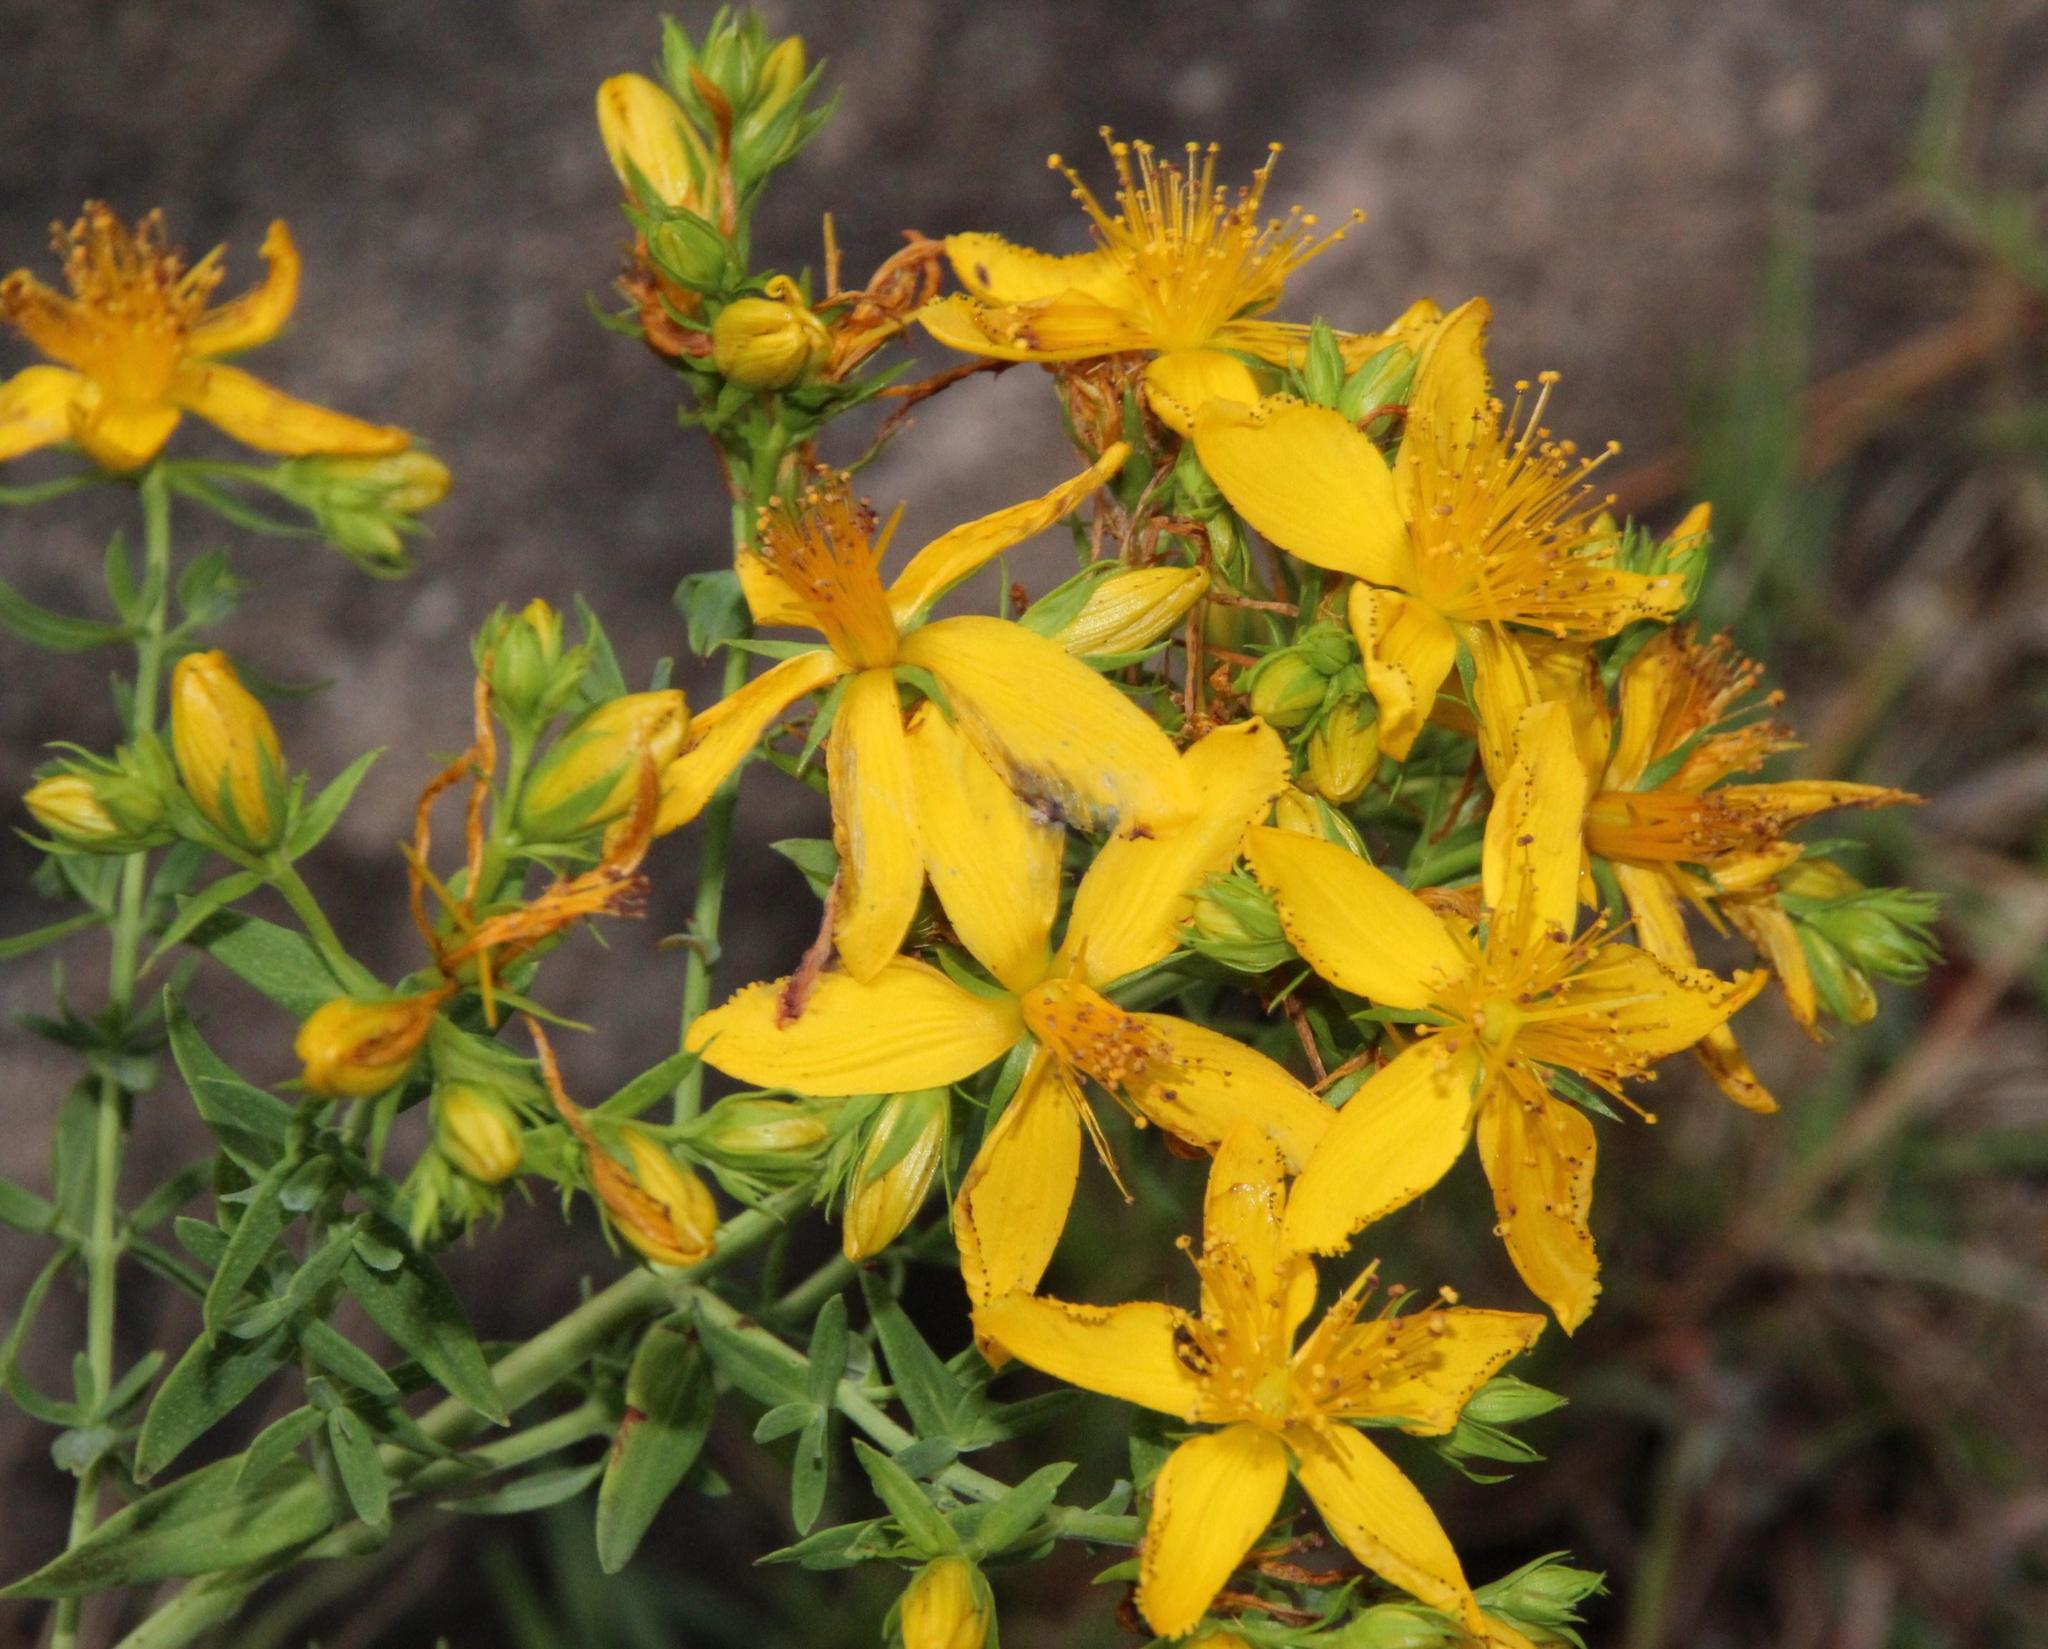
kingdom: Plantae
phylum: Tracheophyta
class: Magnoliopsida
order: Malpighiales
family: Hypericaceae
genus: Hypericum
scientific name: Hypericum canariense
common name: Canary island st. johnswort
